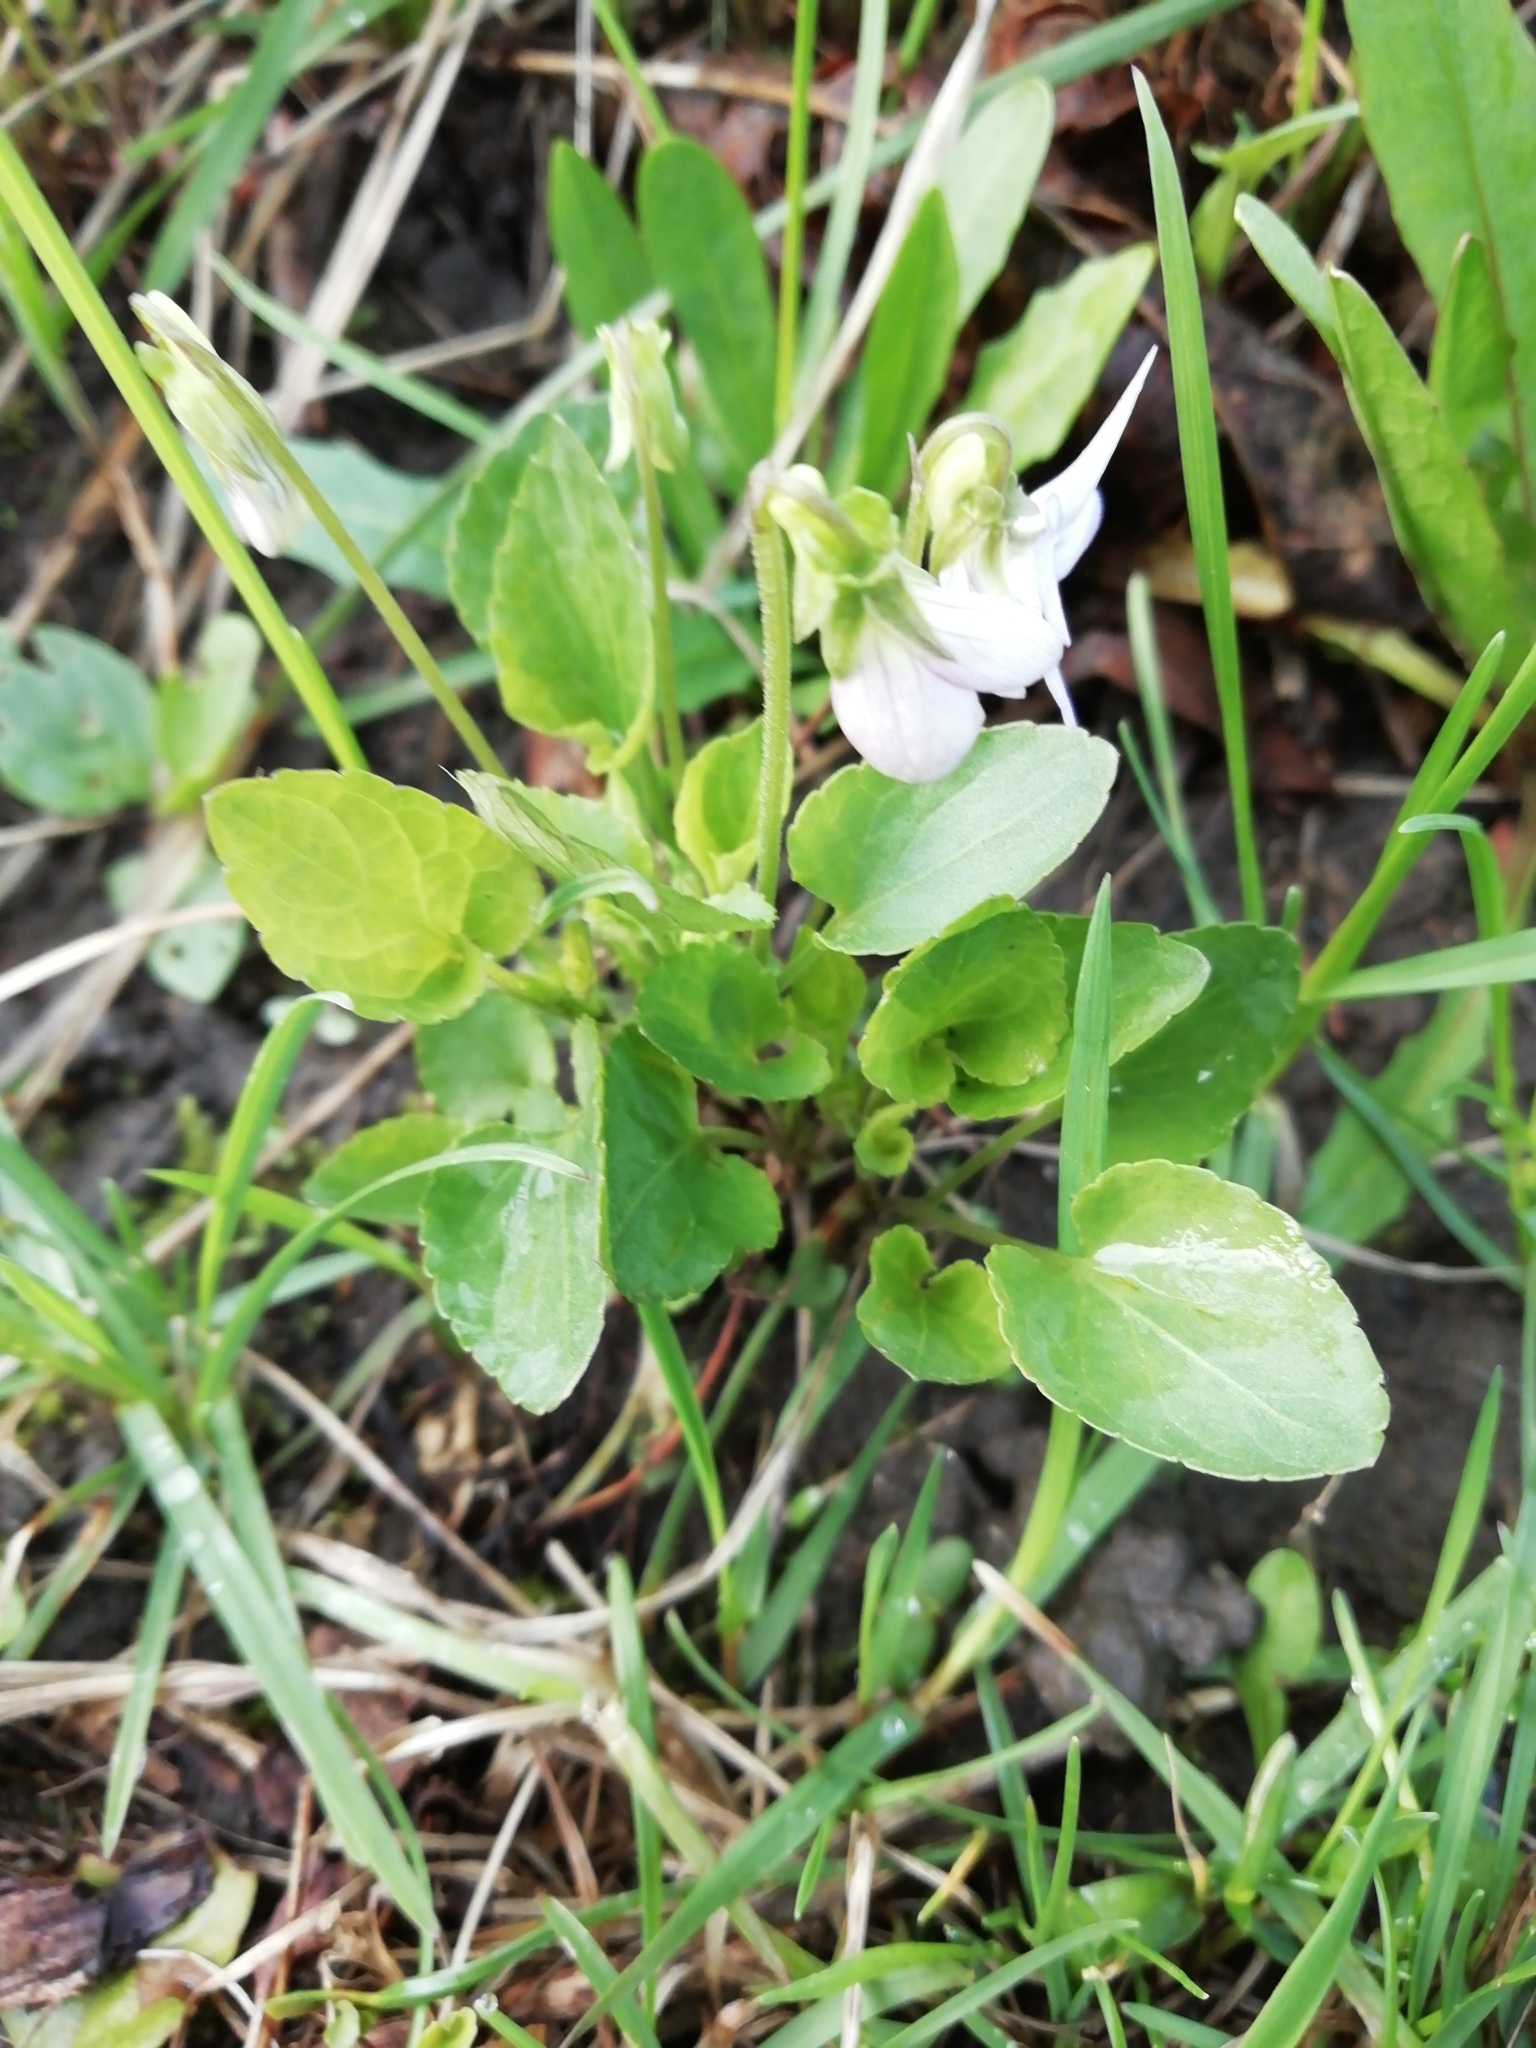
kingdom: Plantae
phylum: Tracheophyta
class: Magnoliopsida
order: Malpighiales
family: Violaceae
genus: Viola
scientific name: Viola
